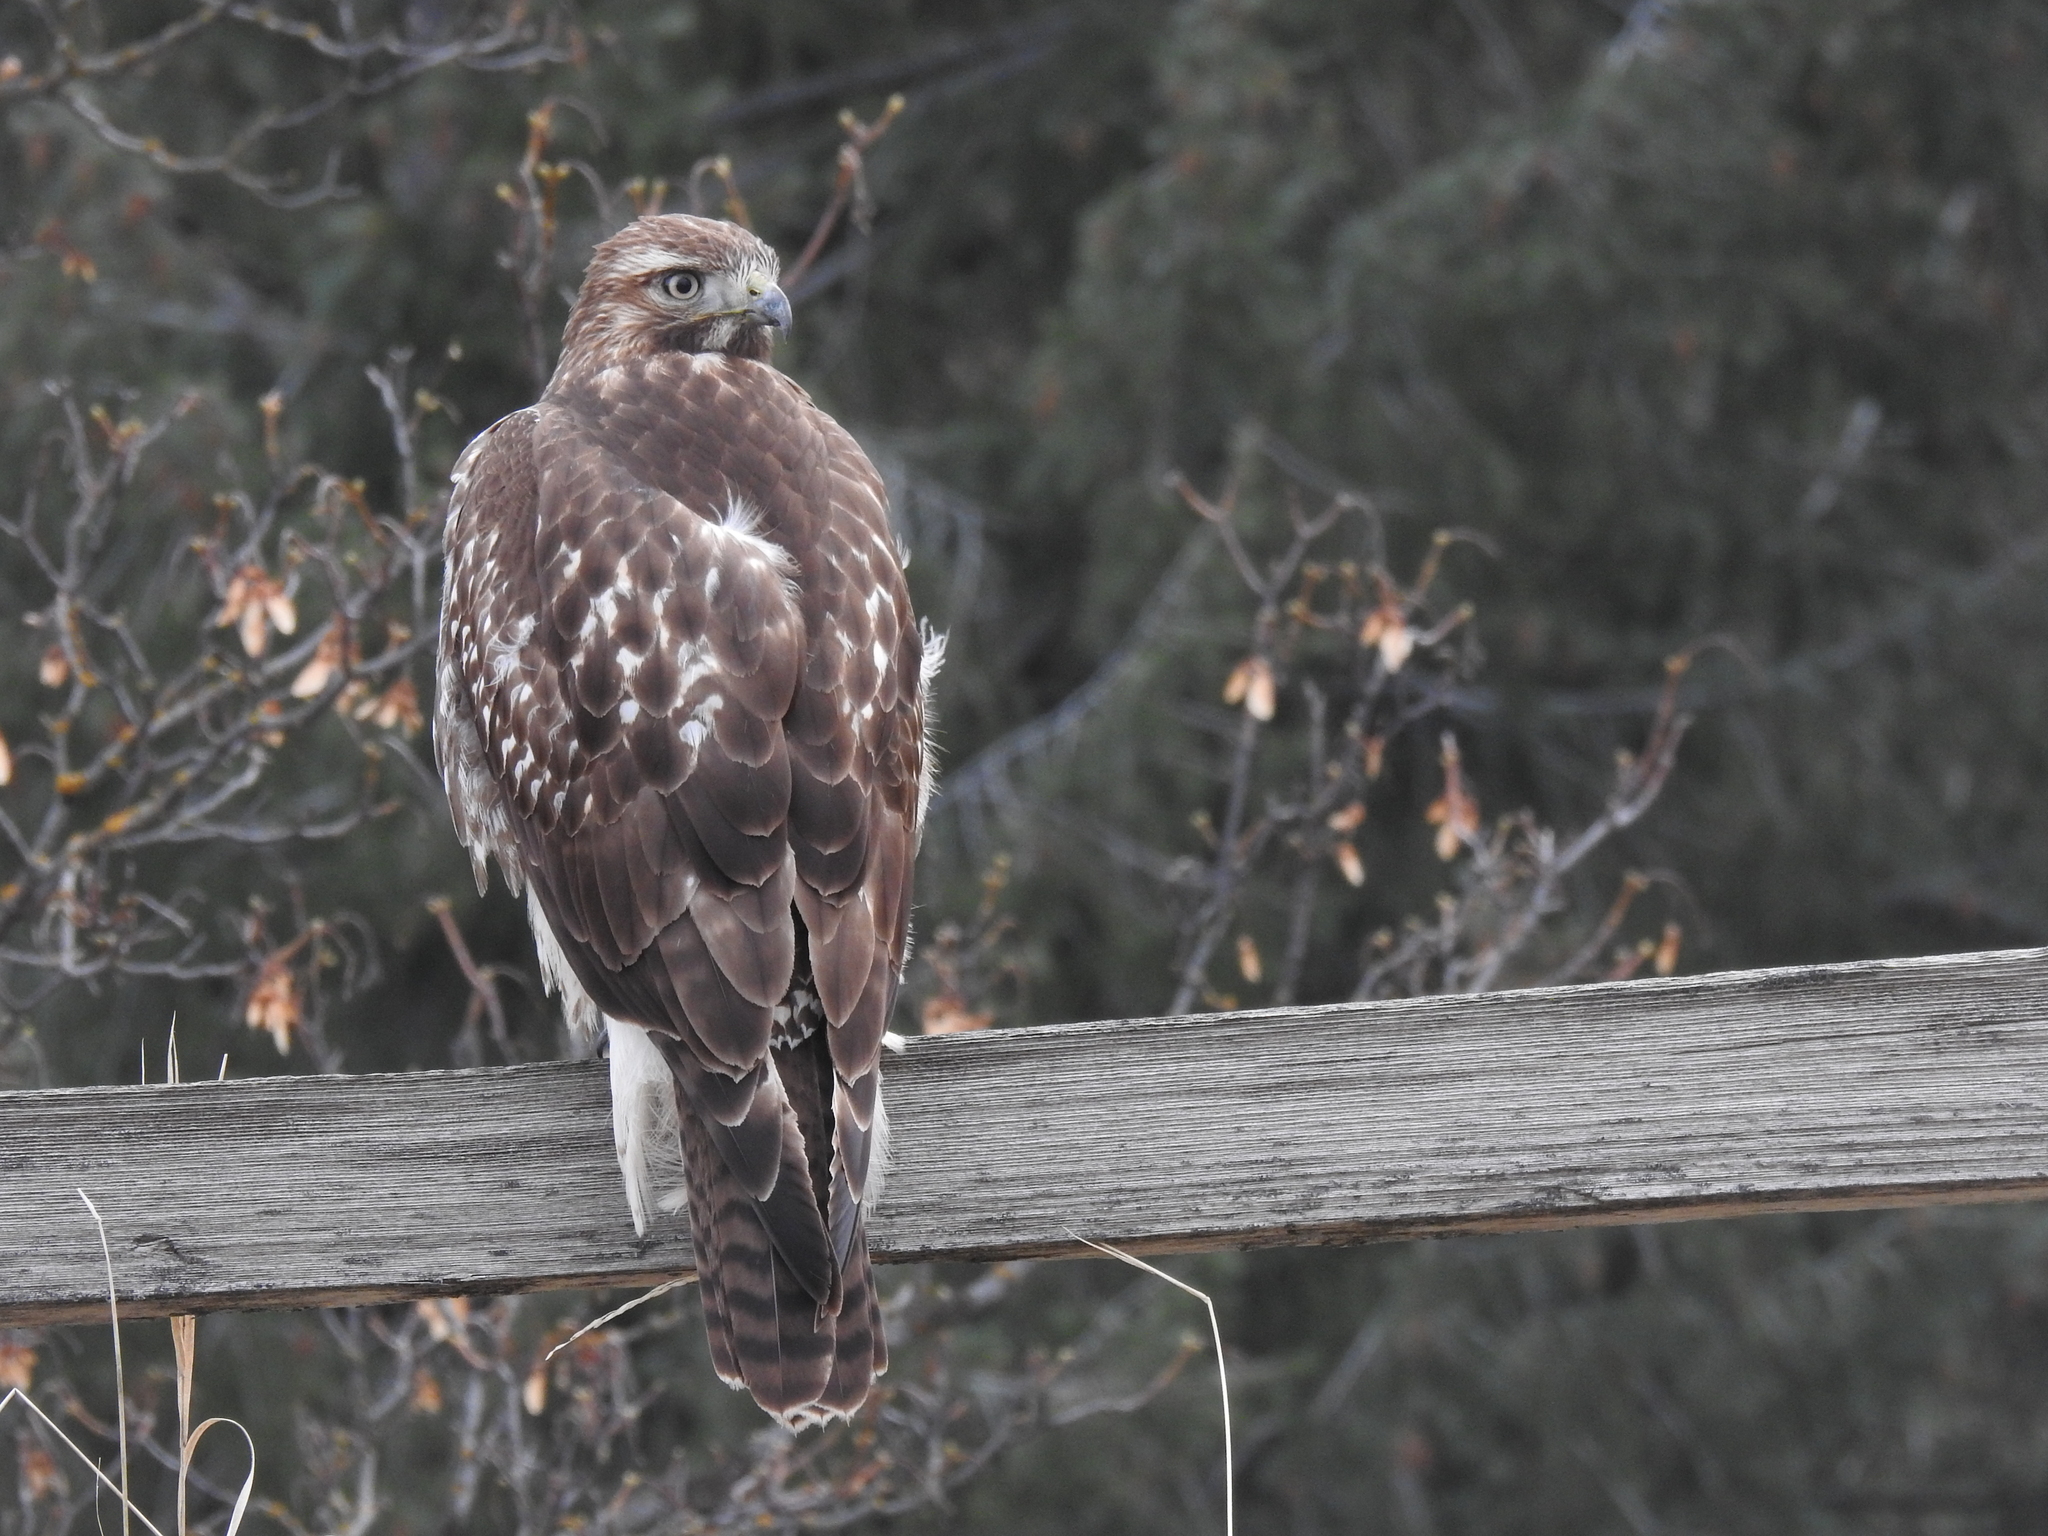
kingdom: Animalia
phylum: Chordata
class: Aves
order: Accipitriformes
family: Accipitridae
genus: Buteo
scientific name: Buteo jamaicensis
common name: Red-tailed hawk
